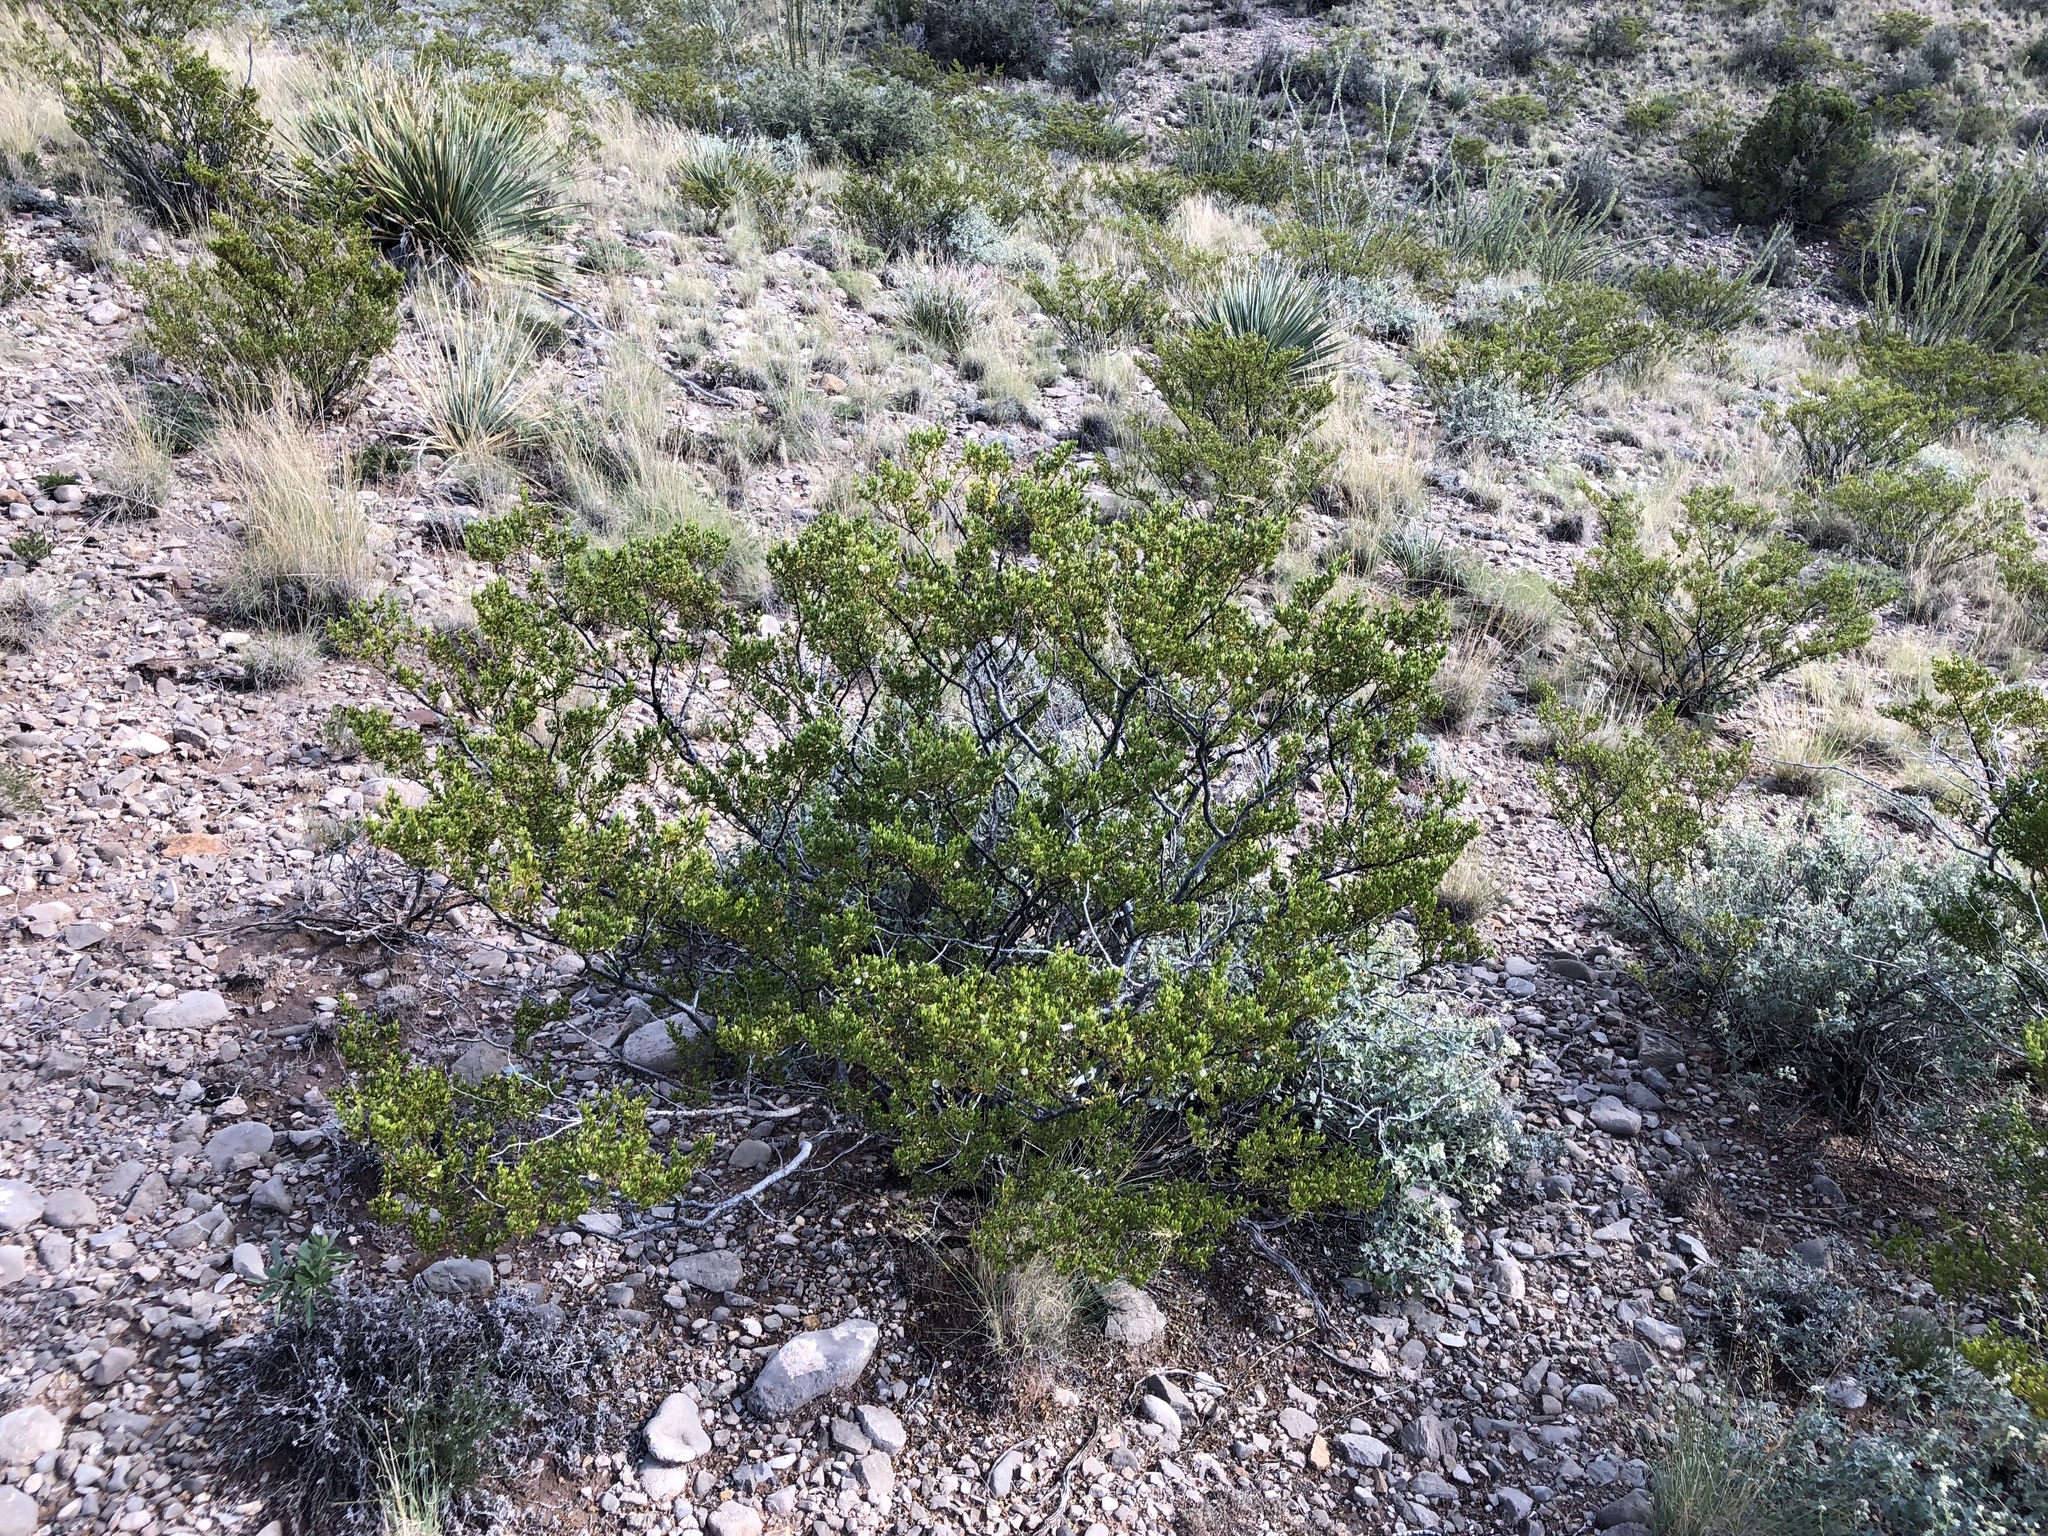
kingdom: Plantae
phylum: Tracheophyta
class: Magnoliopsida
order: Zygophyllales
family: Zygophyllaceae
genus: Larrea
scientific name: Larrea tridentata
